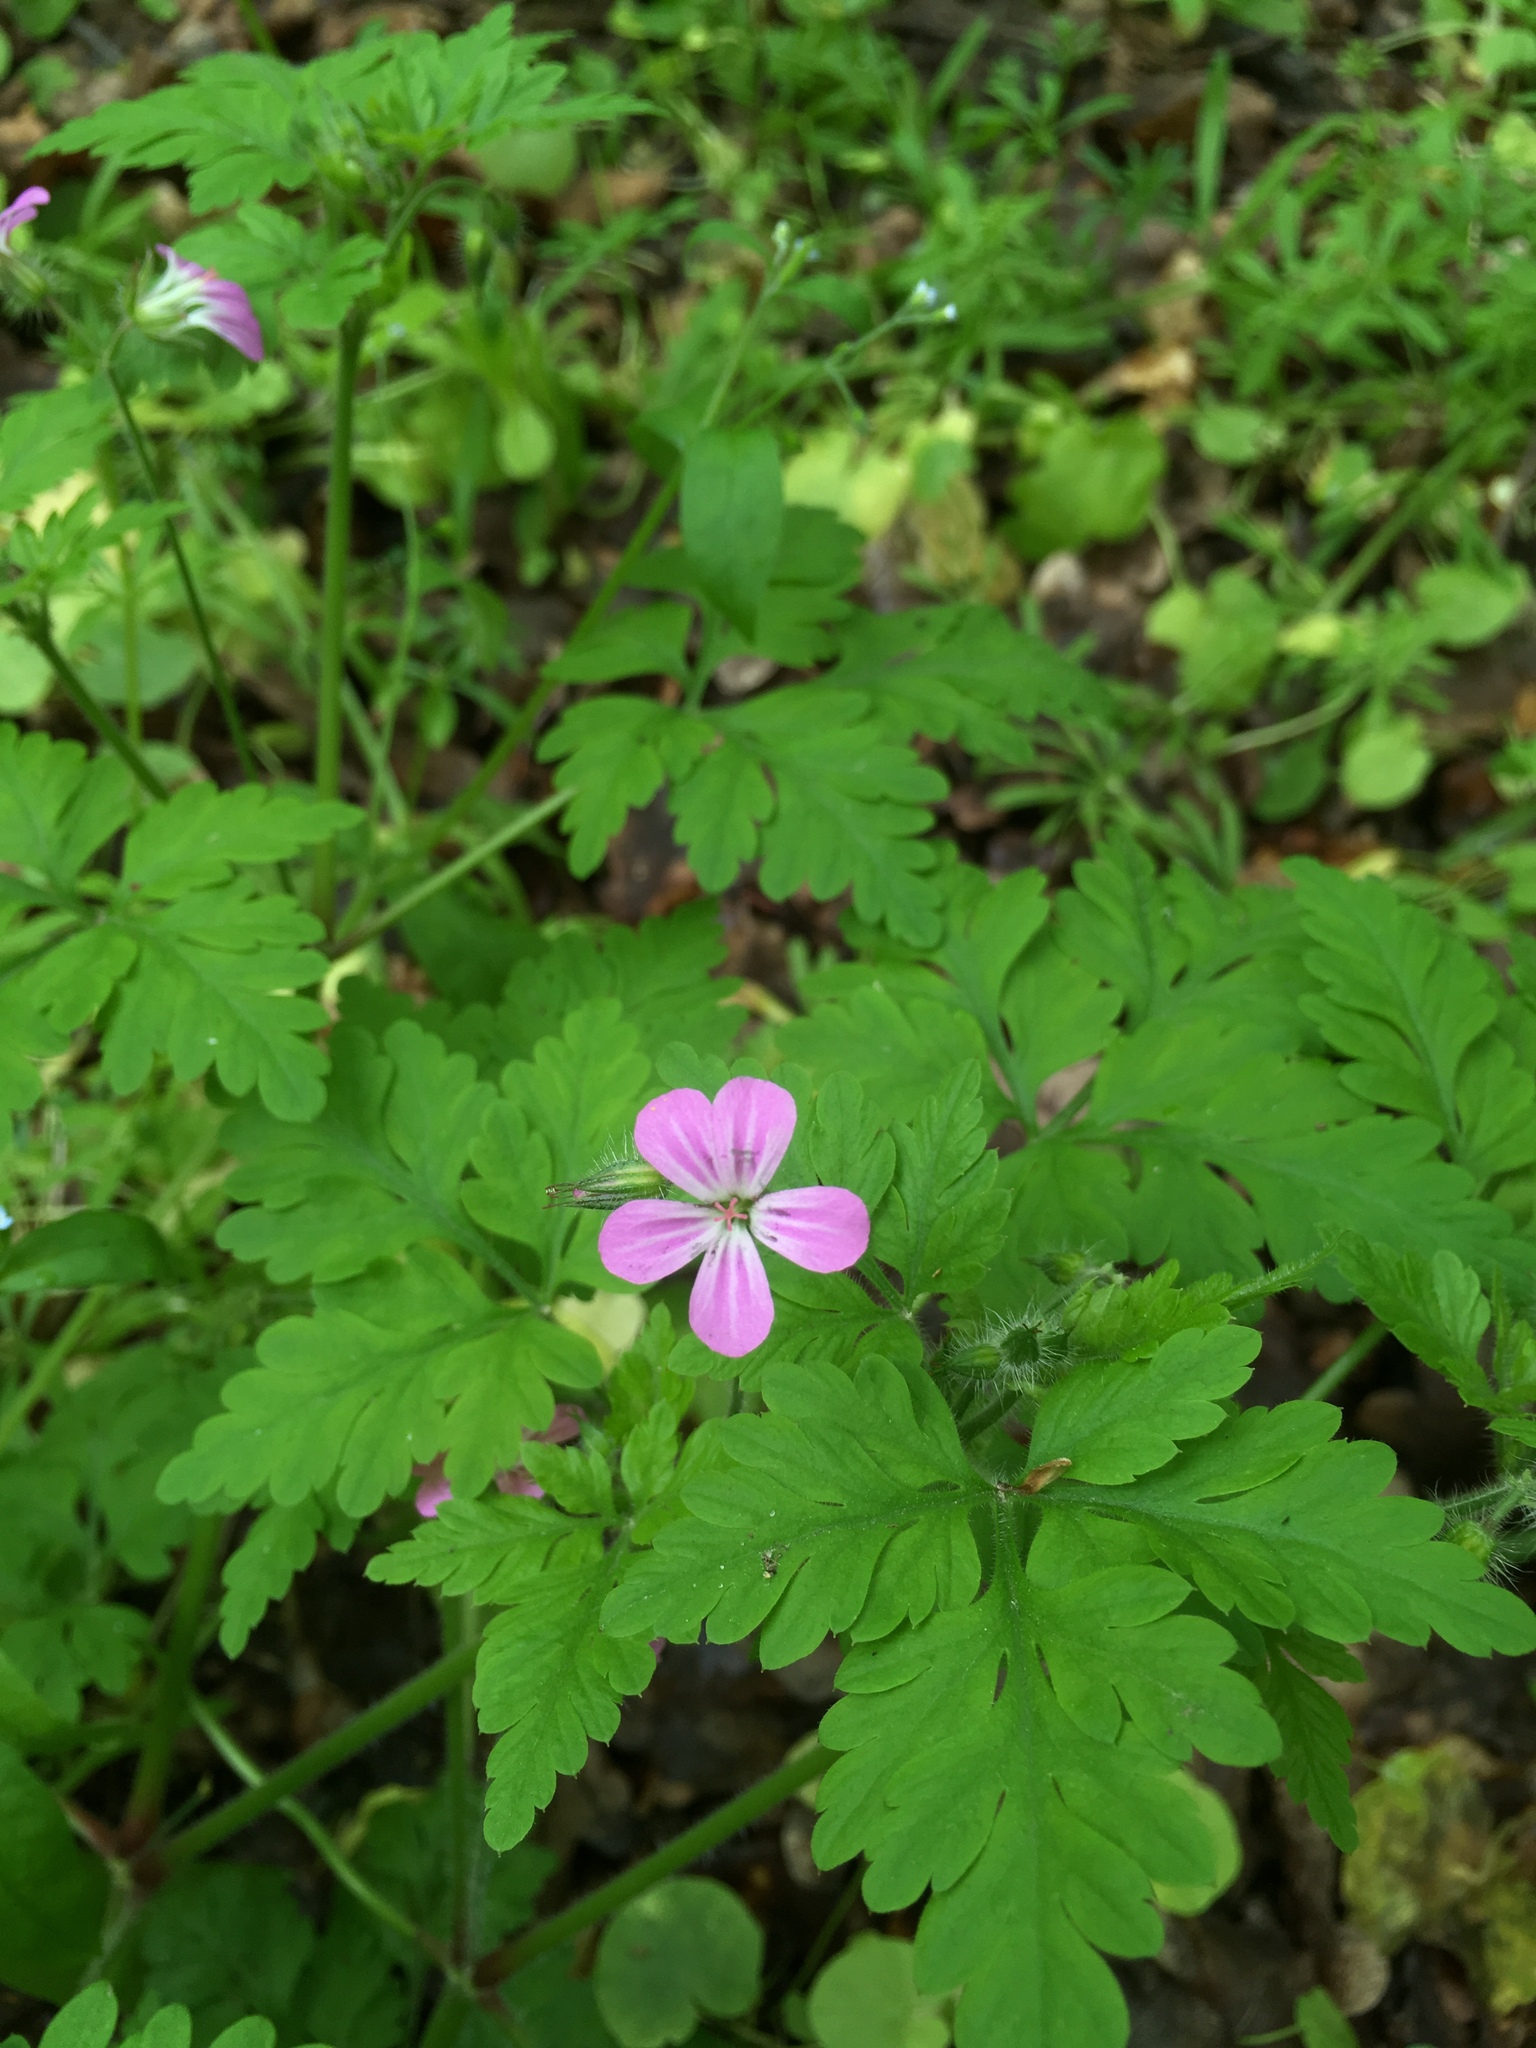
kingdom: Plantae
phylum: Tracheophyta
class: Magnoliopsida
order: Geraniales
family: Geraniaceae
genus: Geranium
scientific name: Geranium robertianum
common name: Herb-robert
